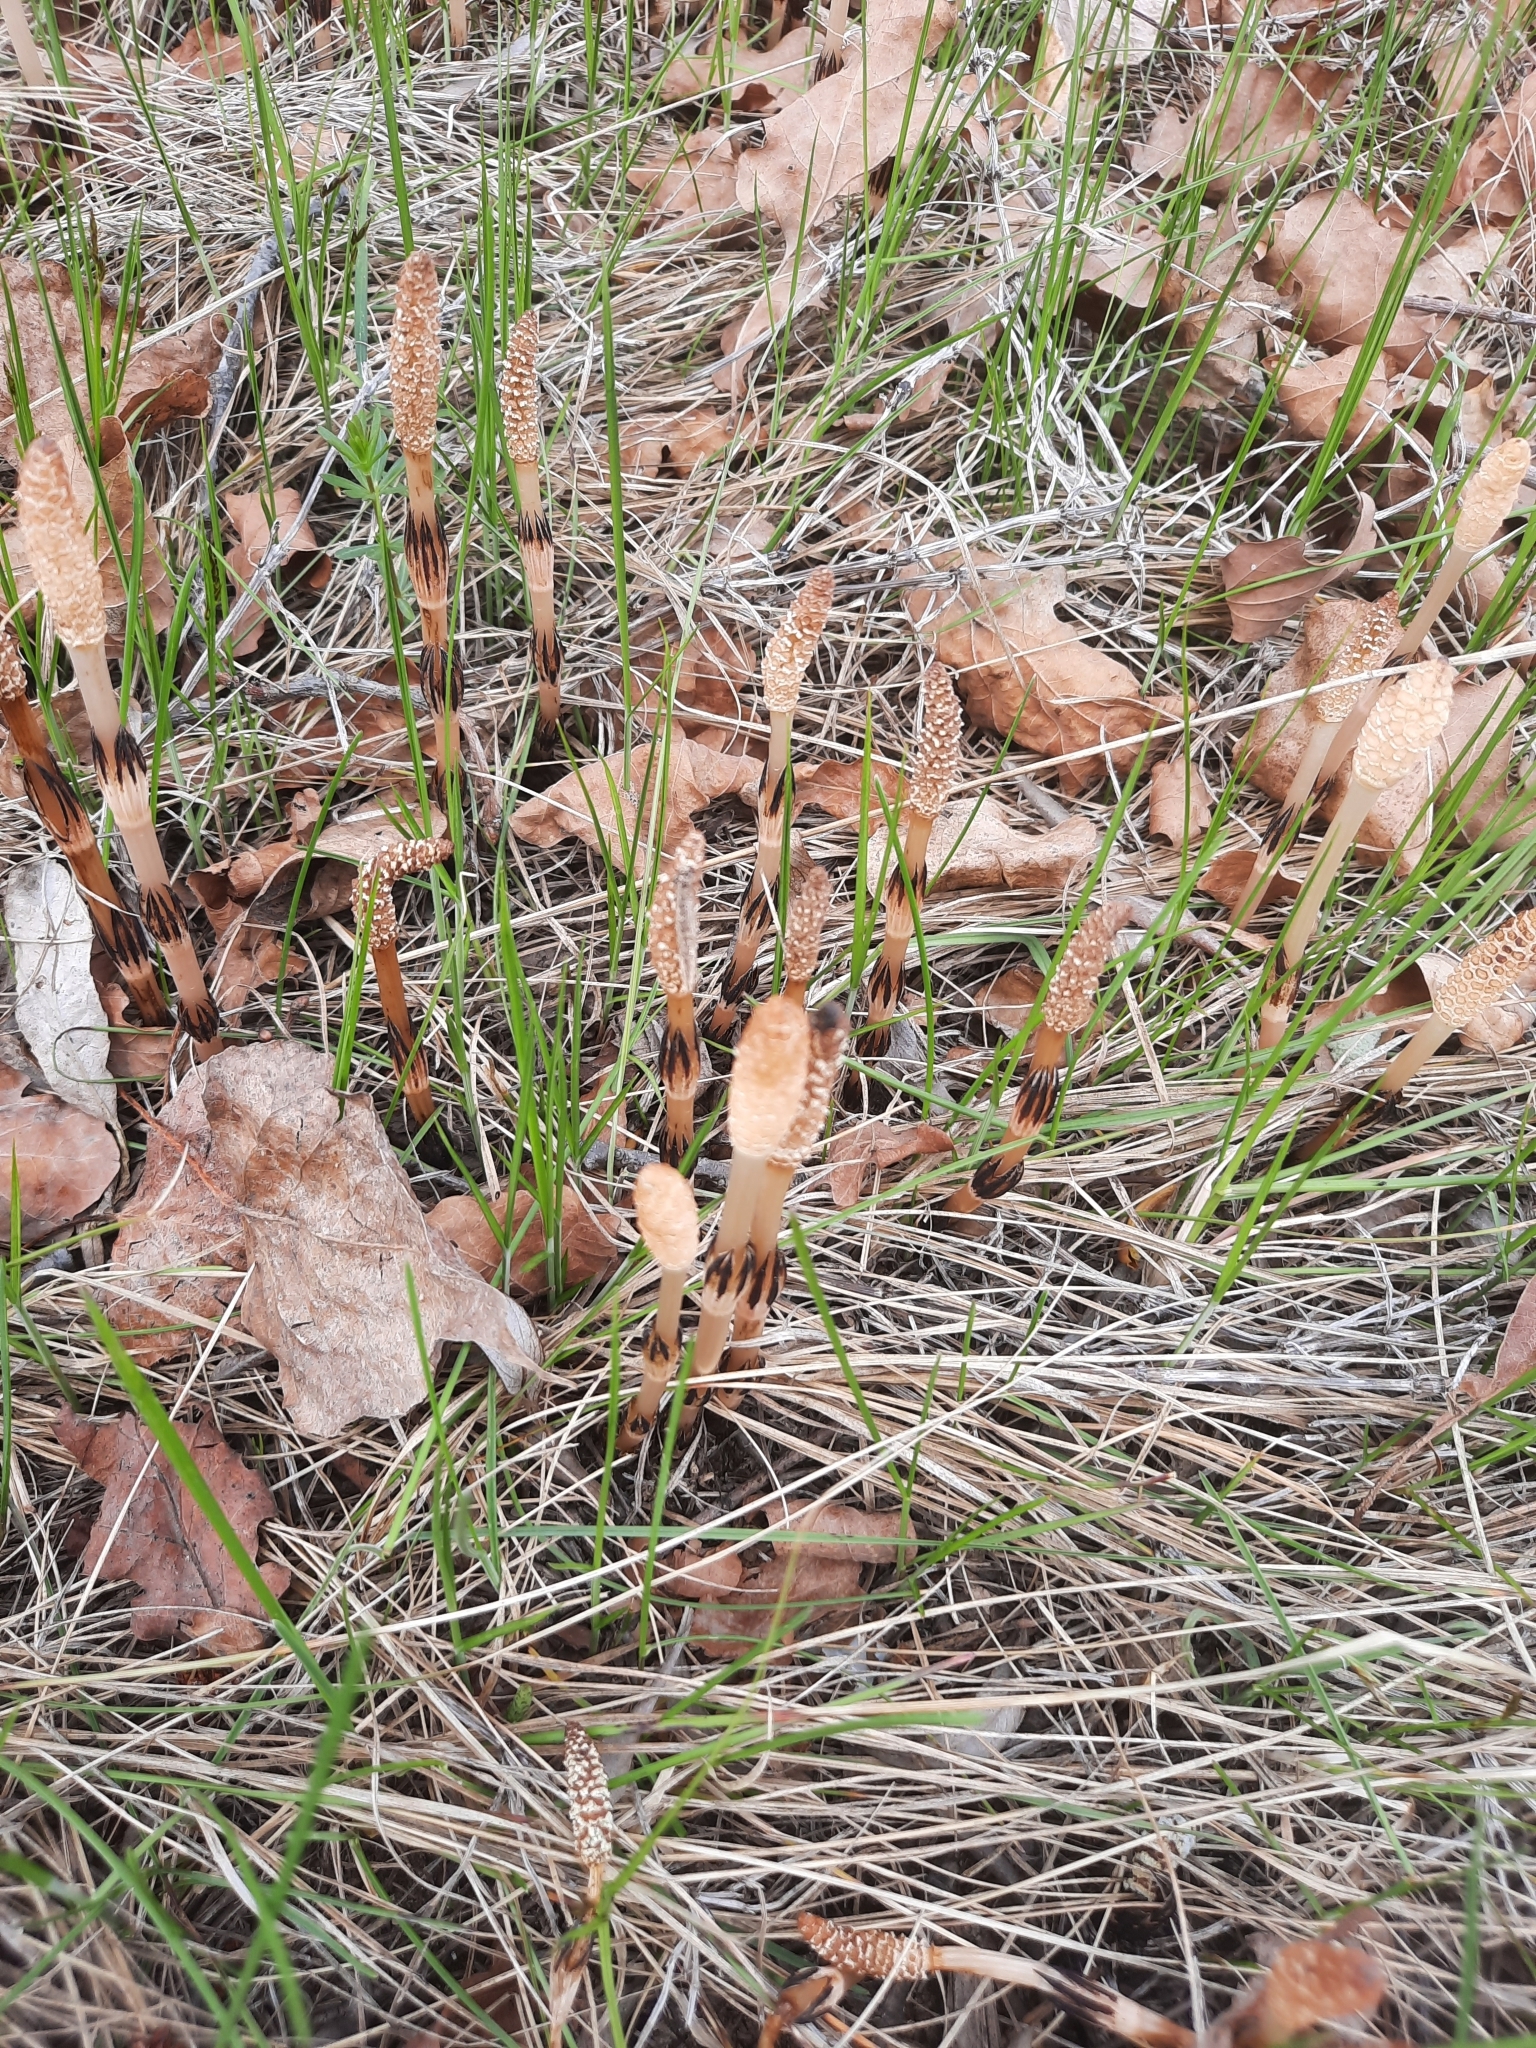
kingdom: Plantae
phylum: Tracheophyta
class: Polypodiopsida
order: Equisetales
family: Equisetaceae
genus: Equisetum
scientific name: Equisetum arvense
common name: Field horsetail
